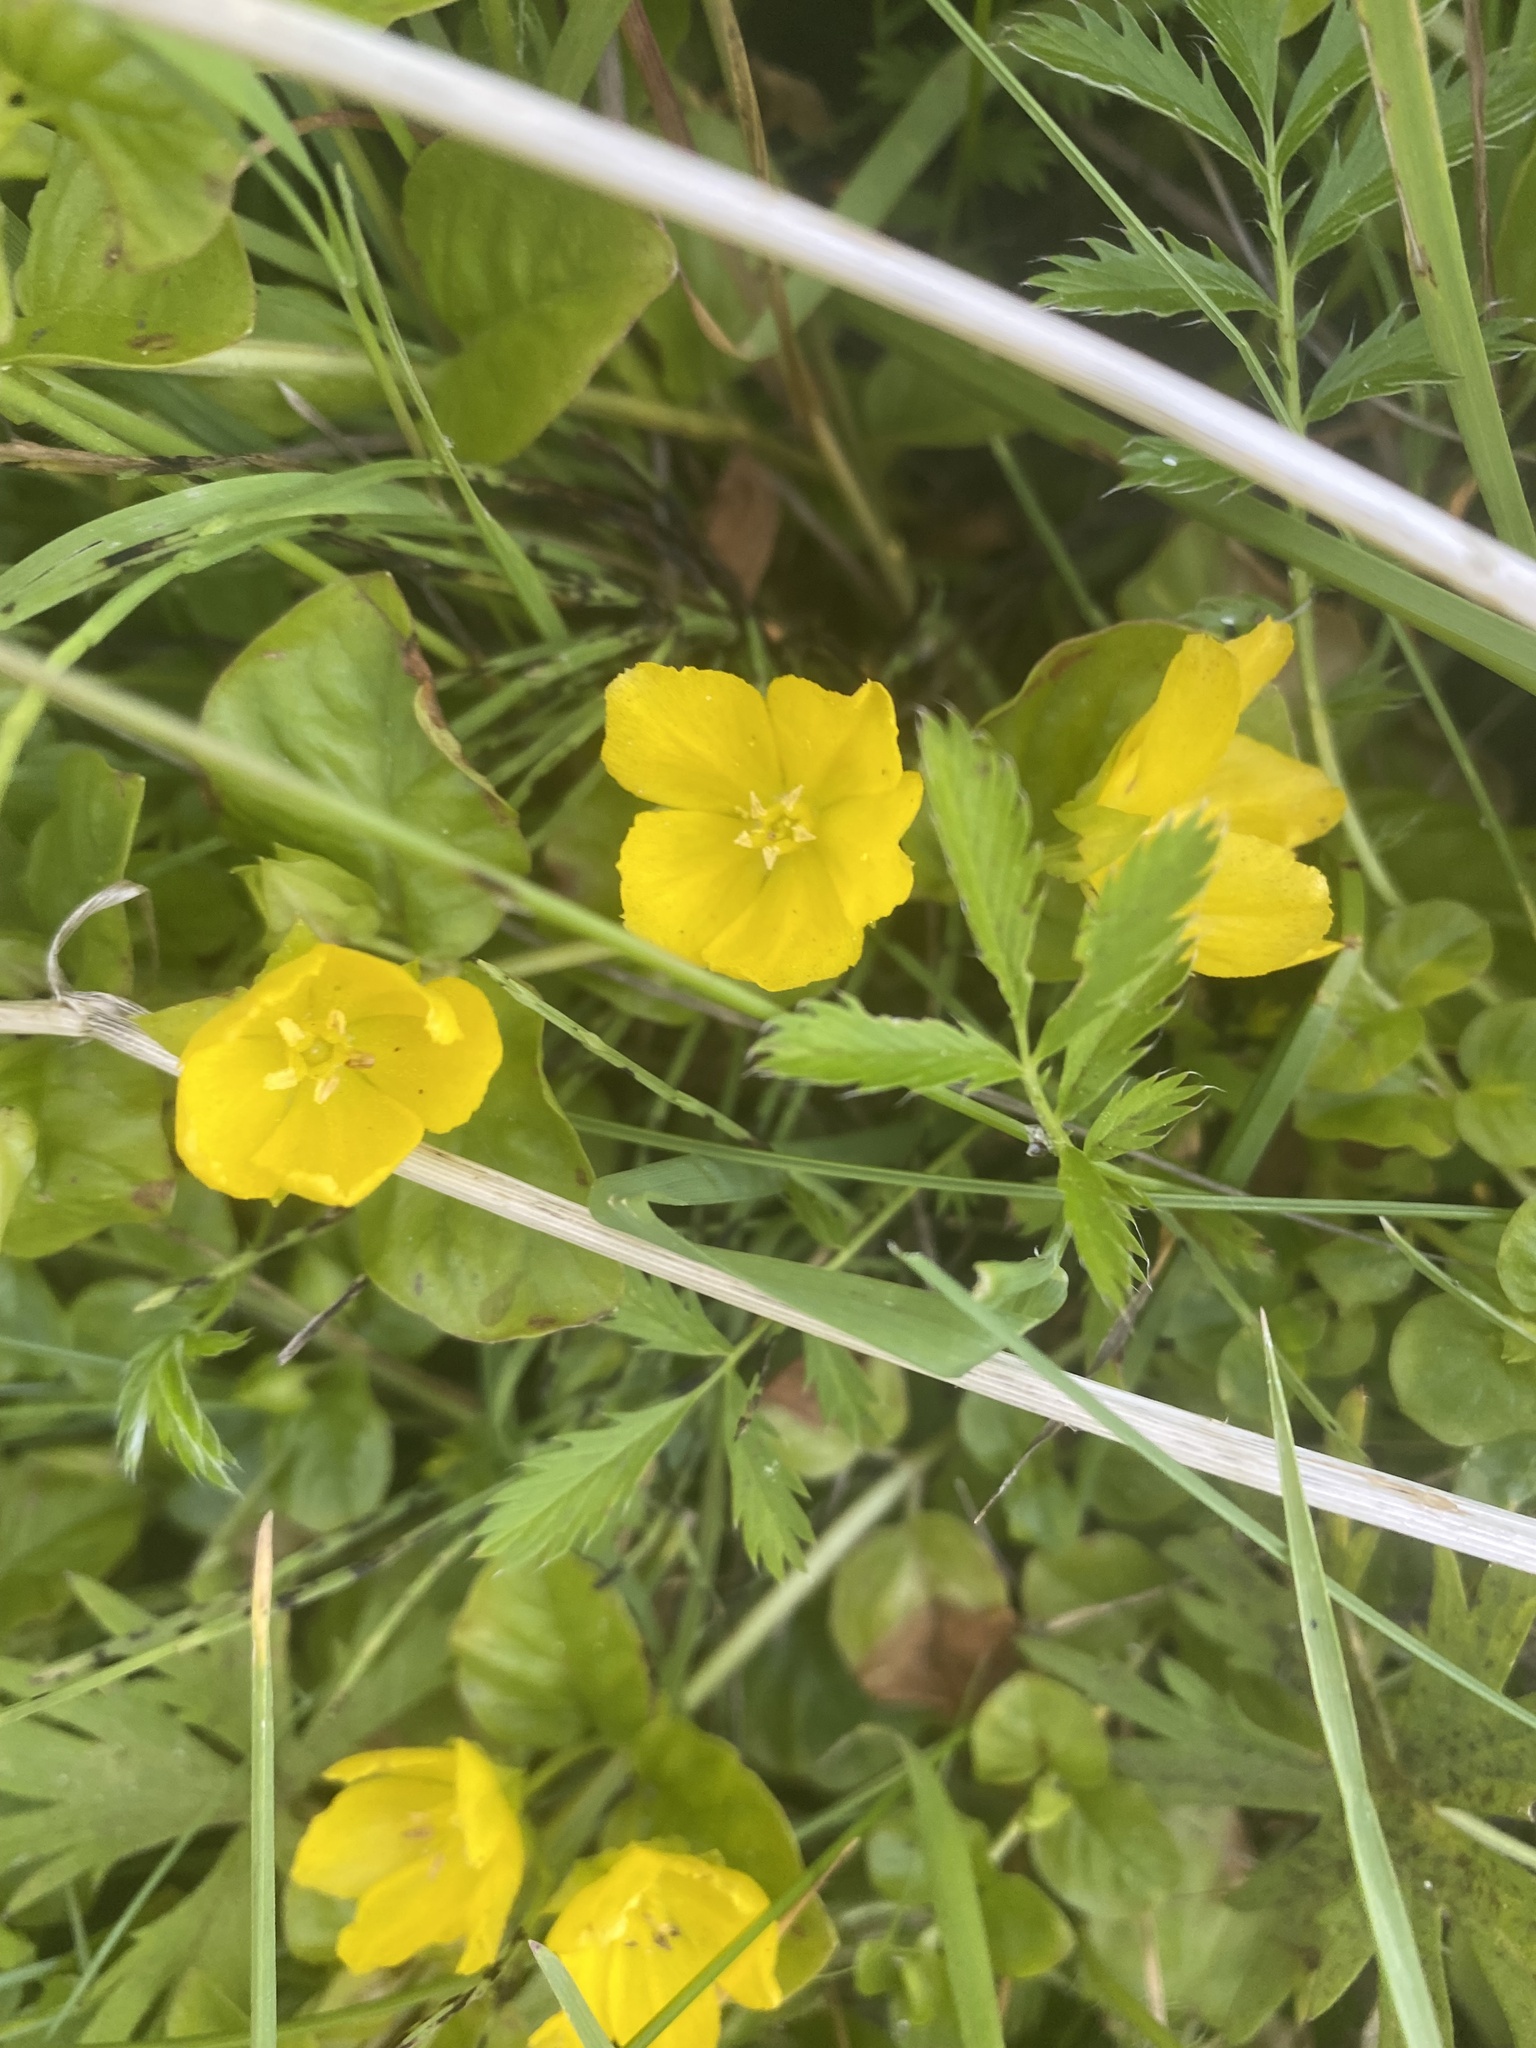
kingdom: Plantae
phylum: Tracheophyta
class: Magnoliopsida
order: Ericales
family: Primulaceae
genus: Lysimachia
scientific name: Lysimachia nummularia
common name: Moneywort
